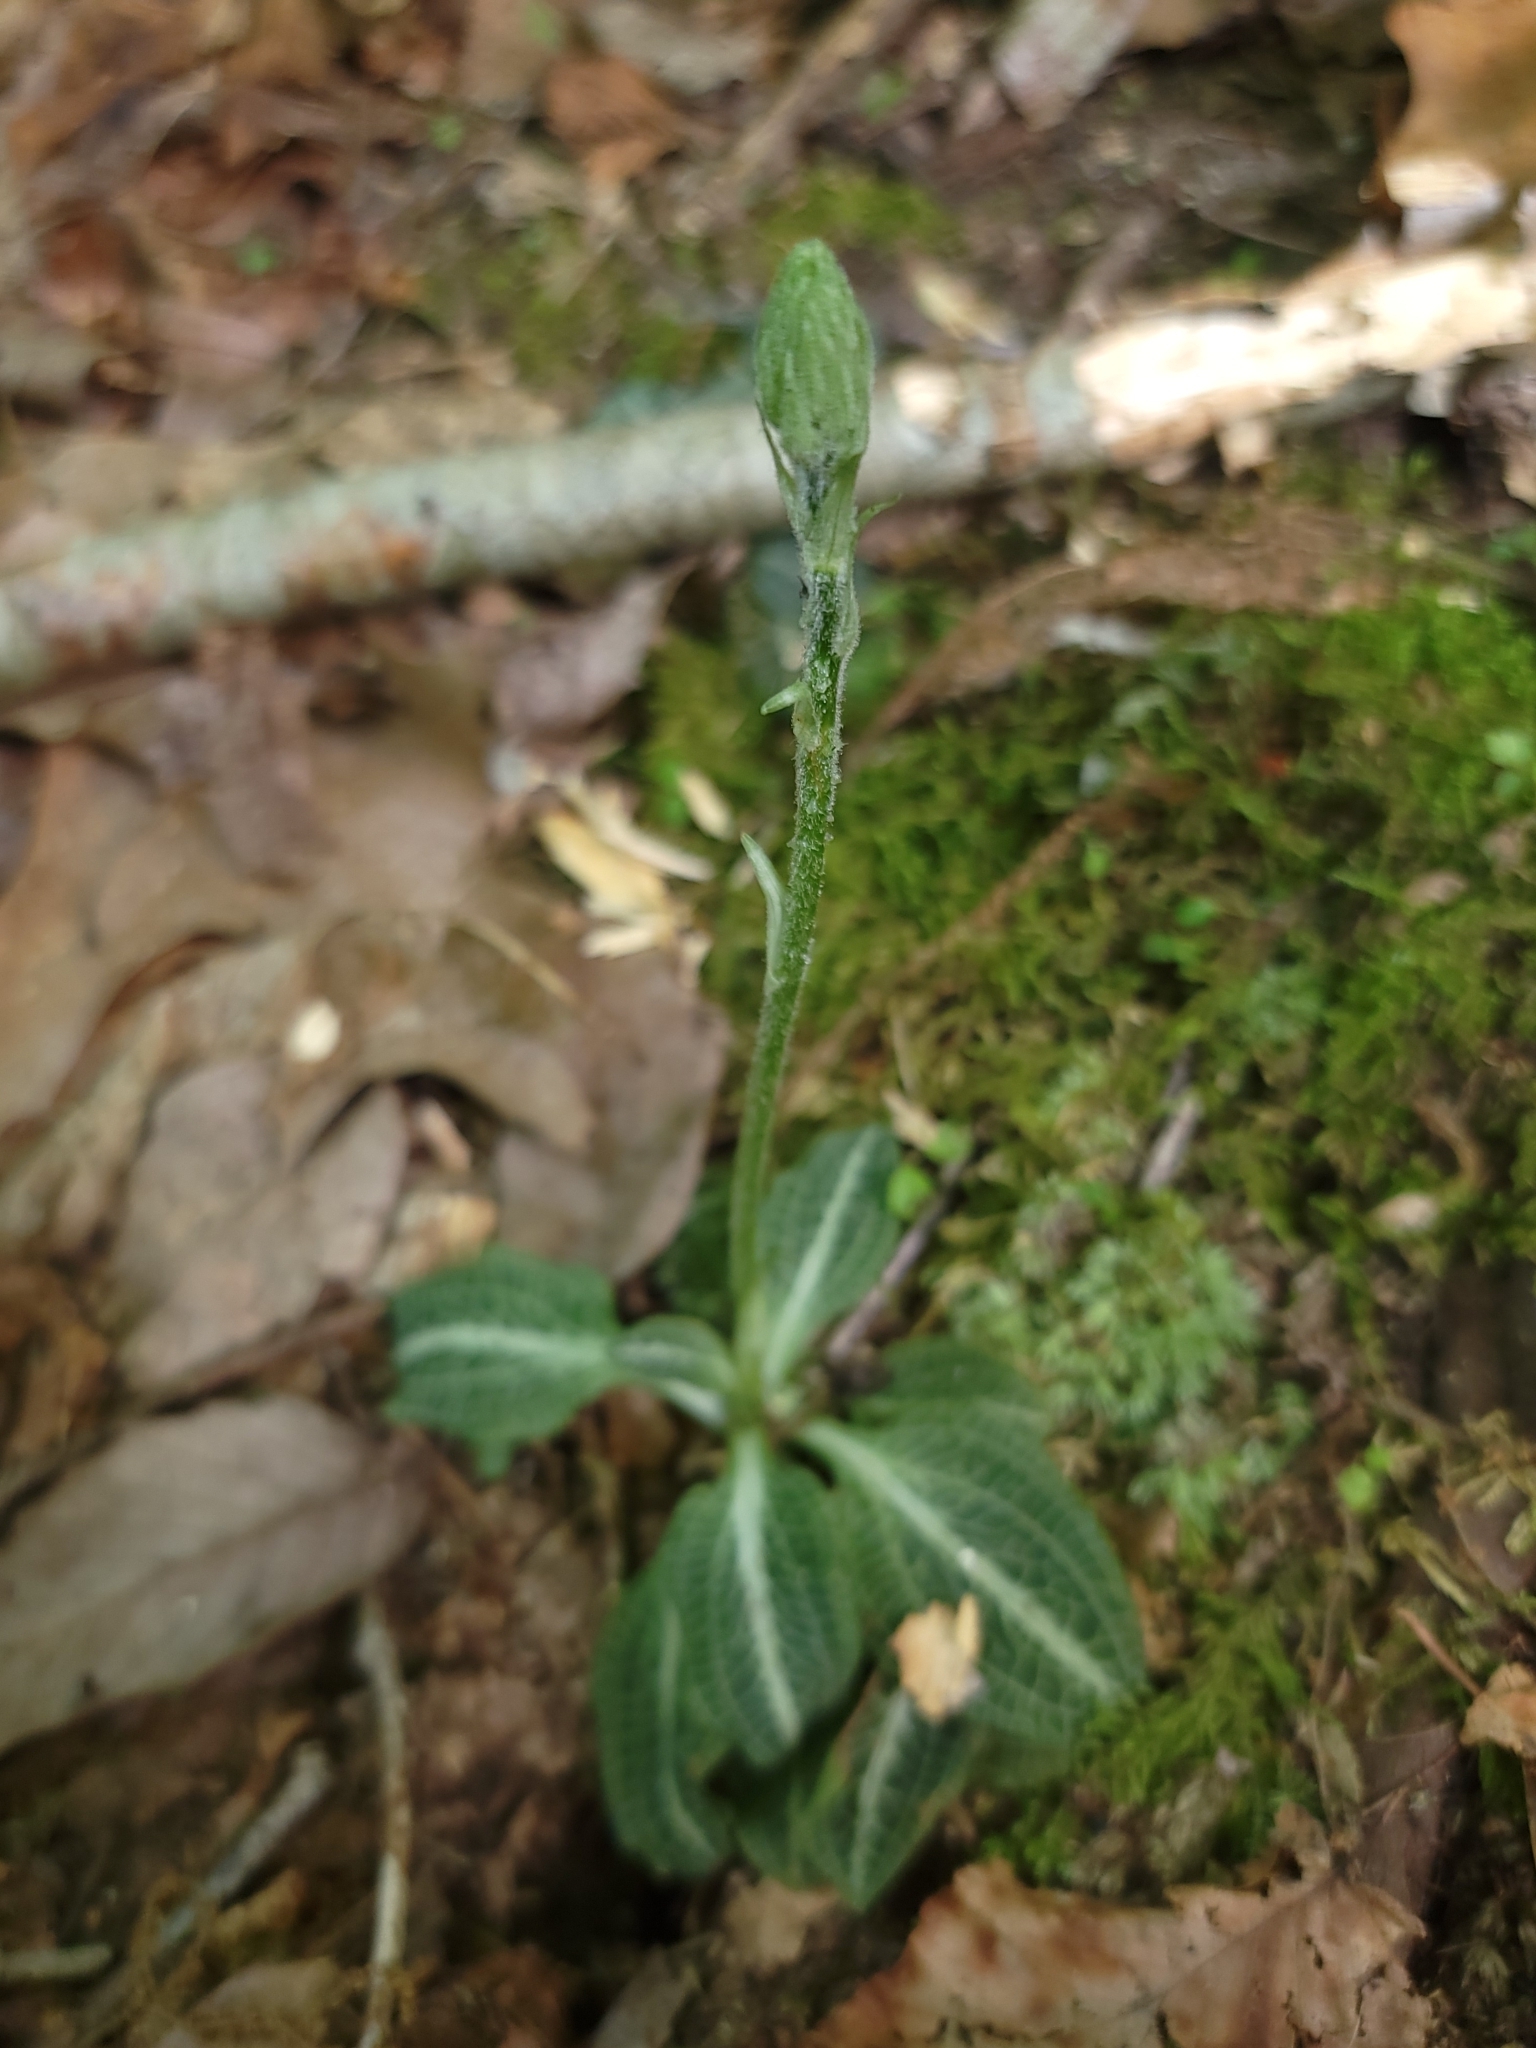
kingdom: Plantae
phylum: Tracheophyta
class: Liliopsida
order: Asparagales
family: Orchidaceae
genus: Goodyera
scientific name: Goodyera pubescens
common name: Downy rattlesnake-plantain
